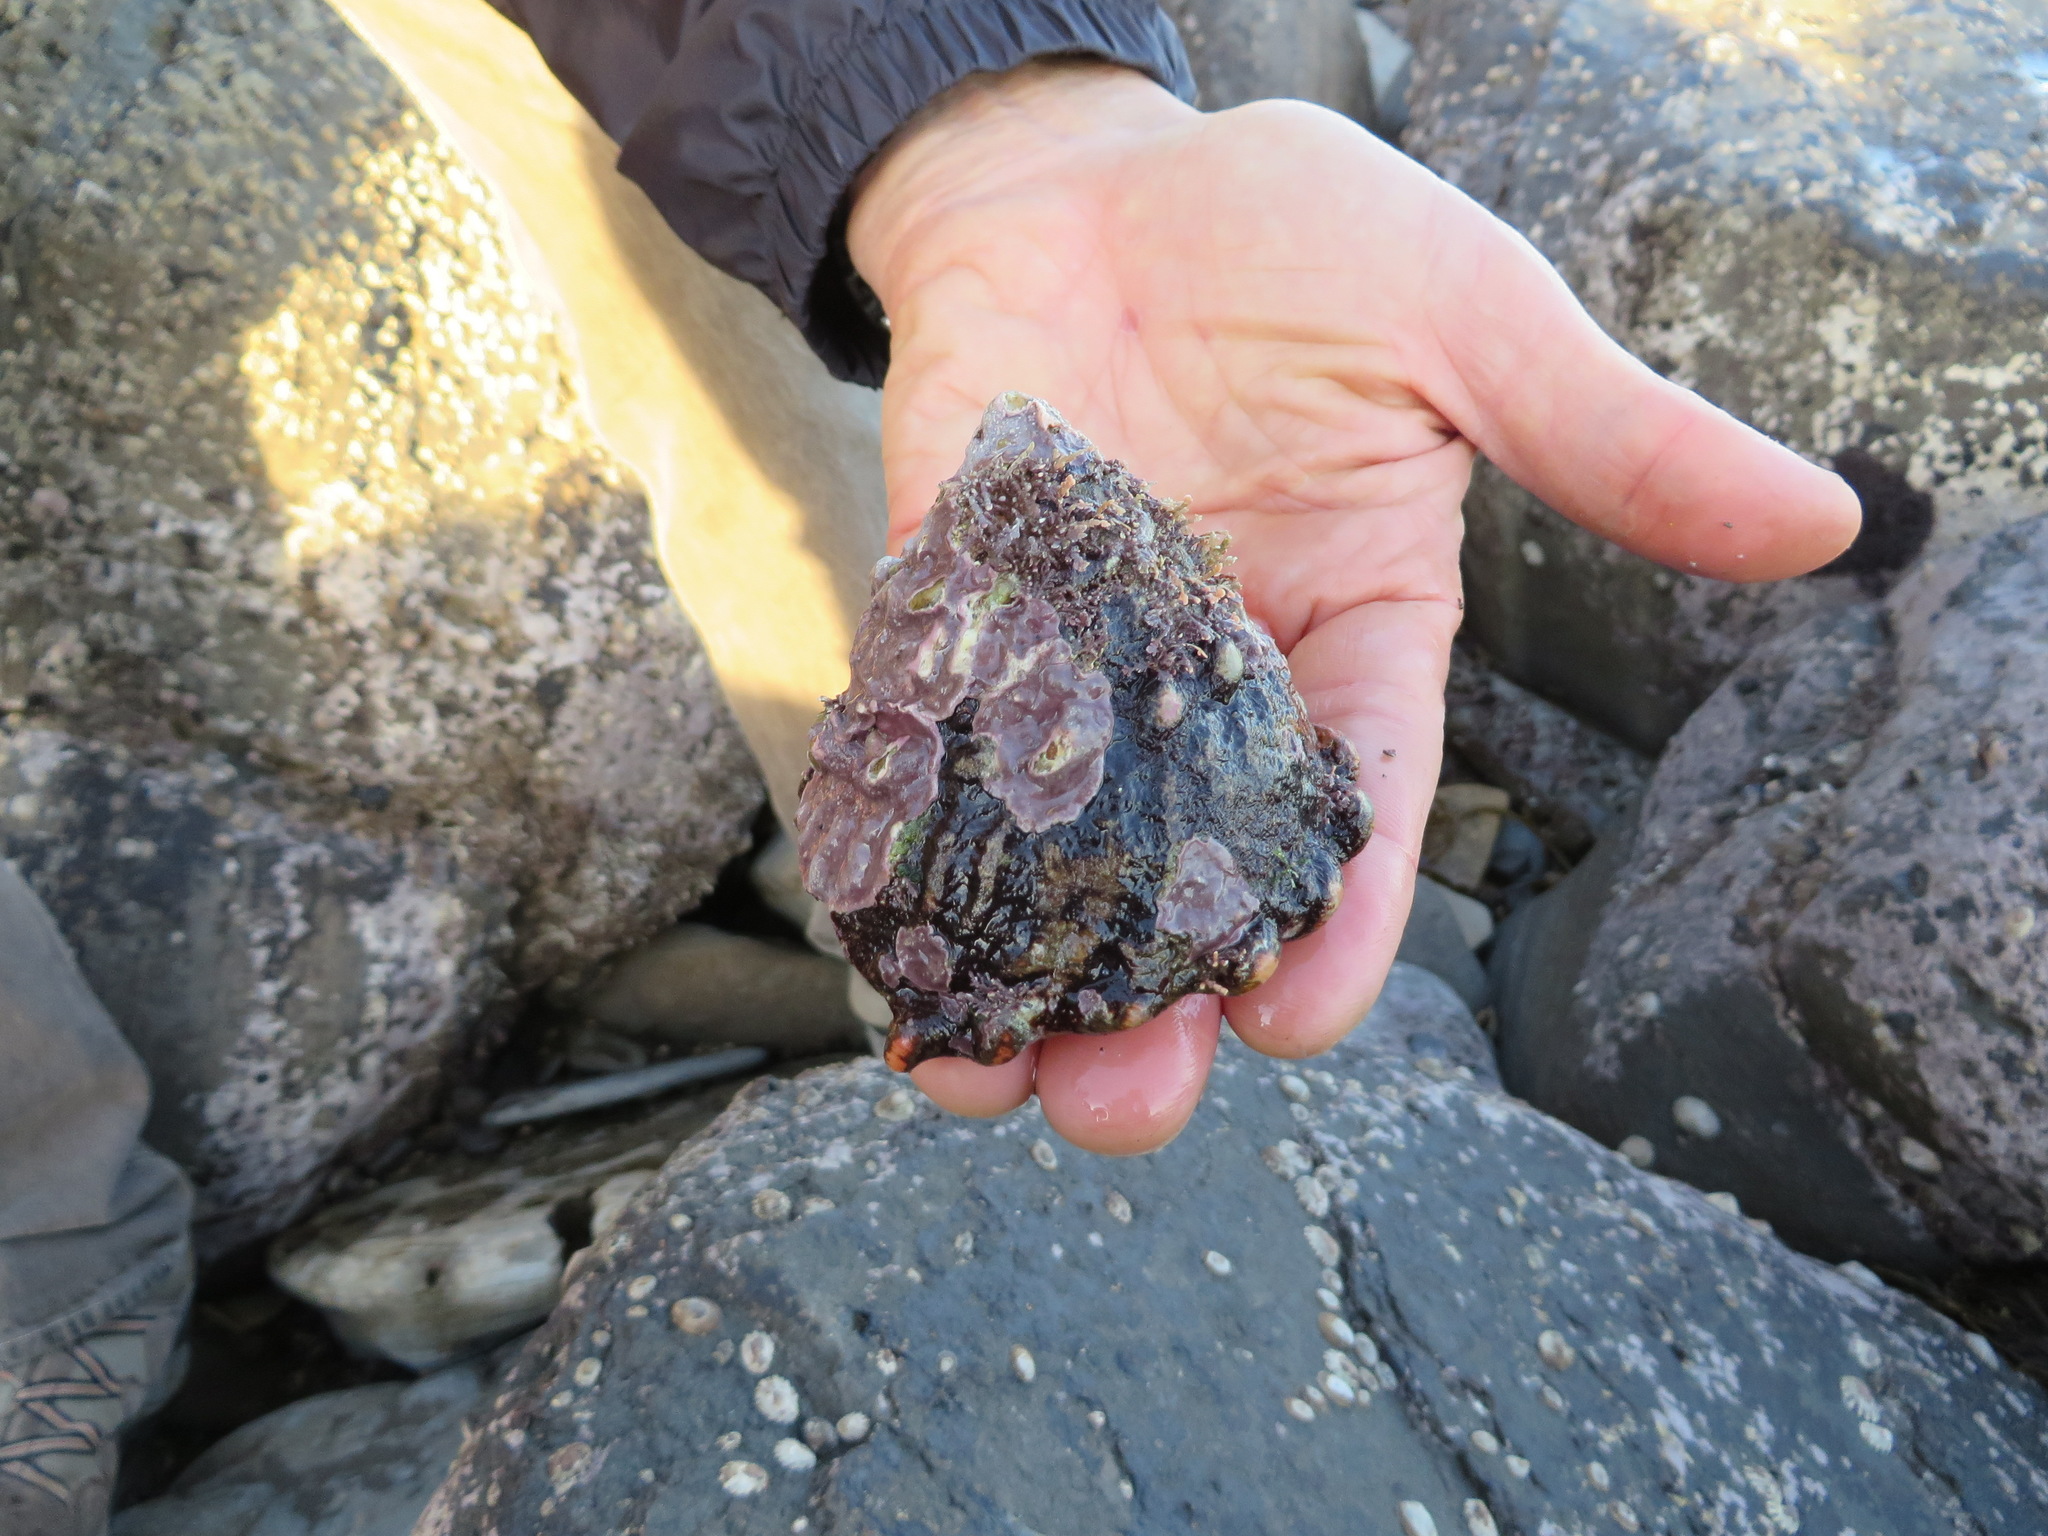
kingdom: Animalia
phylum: Mollusca
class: Gastropoda
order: Trochida
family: Turbinidae
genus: Megastraea
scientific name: Megastraea undosa
